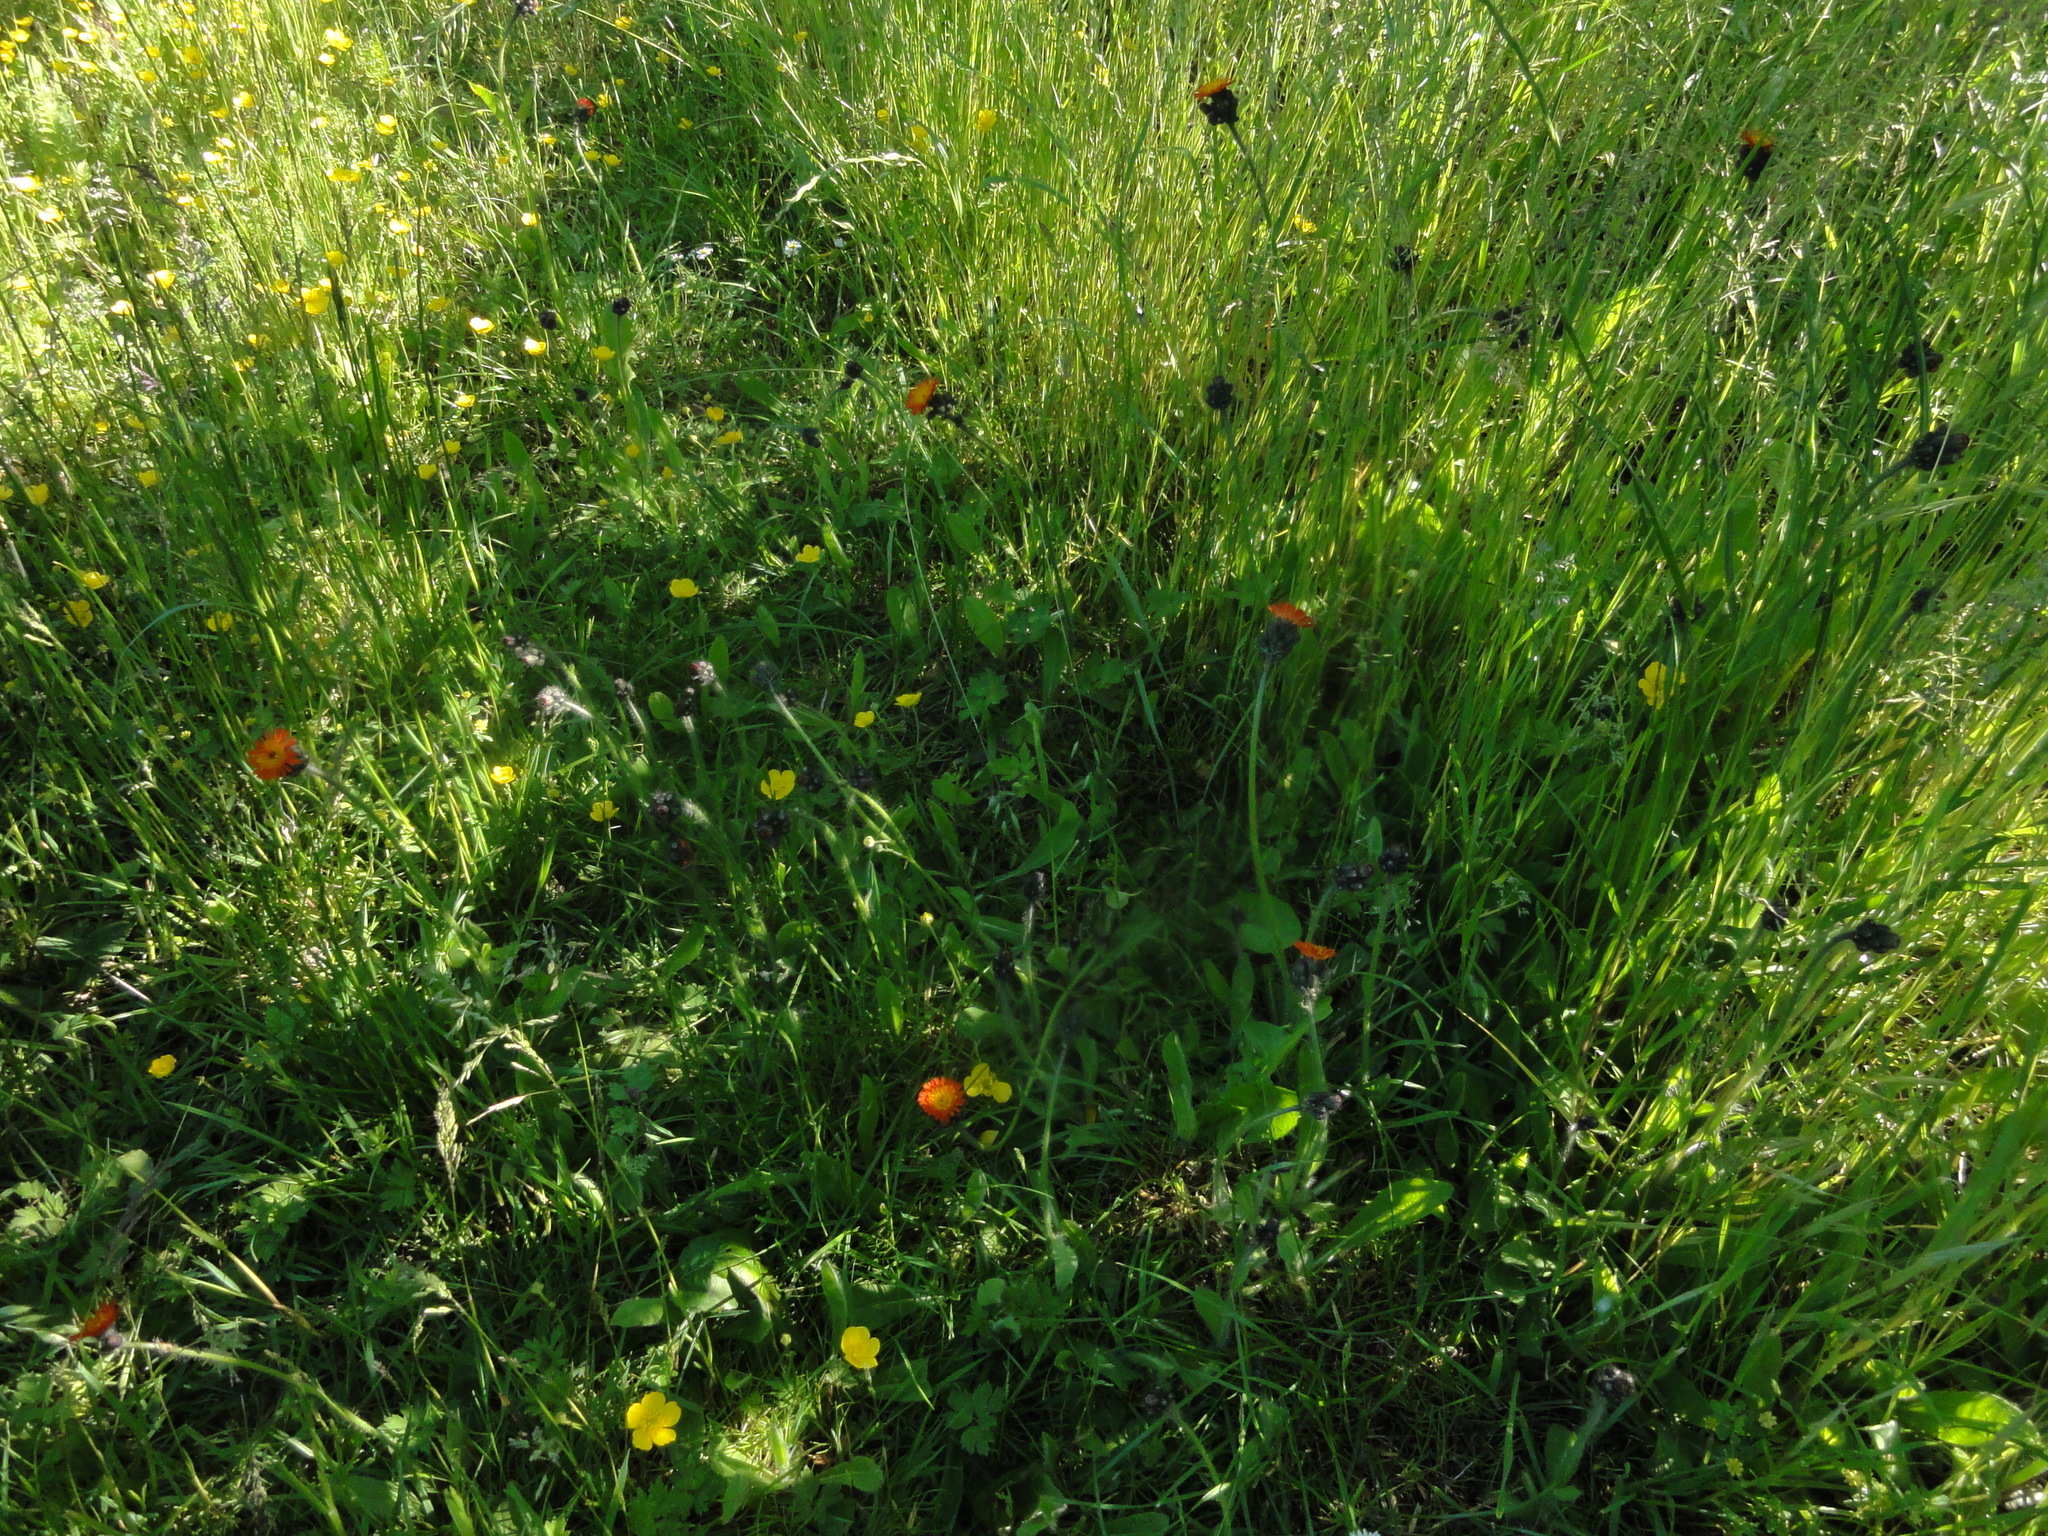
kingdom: Plantae
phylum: Tracheophyta
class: Magnoliopsida
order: Asterales
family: Asteraceae
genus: Pilosella
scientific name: Pilosella aurantiaca
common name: Fox-and-cubs
